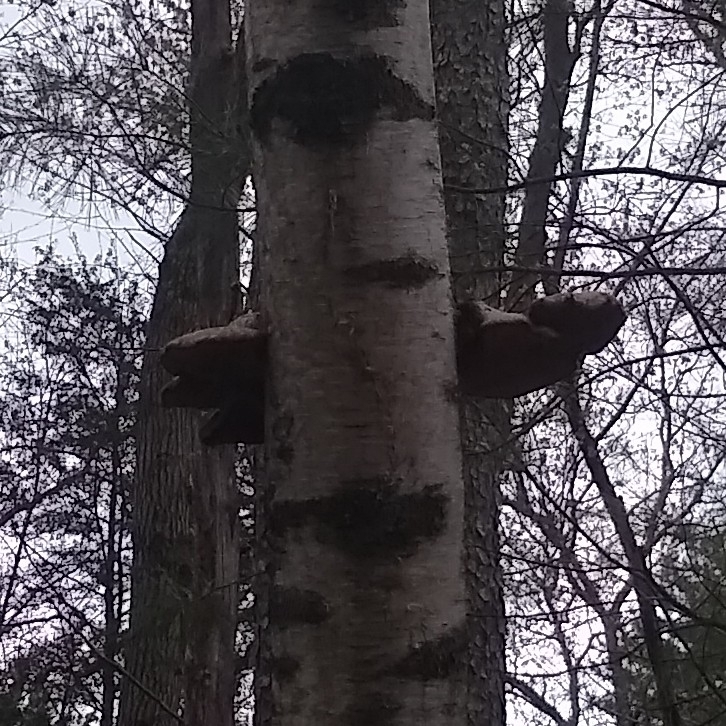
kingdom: Fungi
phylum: Basidiomycota
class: Agaricomycetes
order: Polyporales
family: Fomitopsidaceae
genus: Fomitopsis
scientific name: Fomitopsis betulina
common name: Birch polypore
